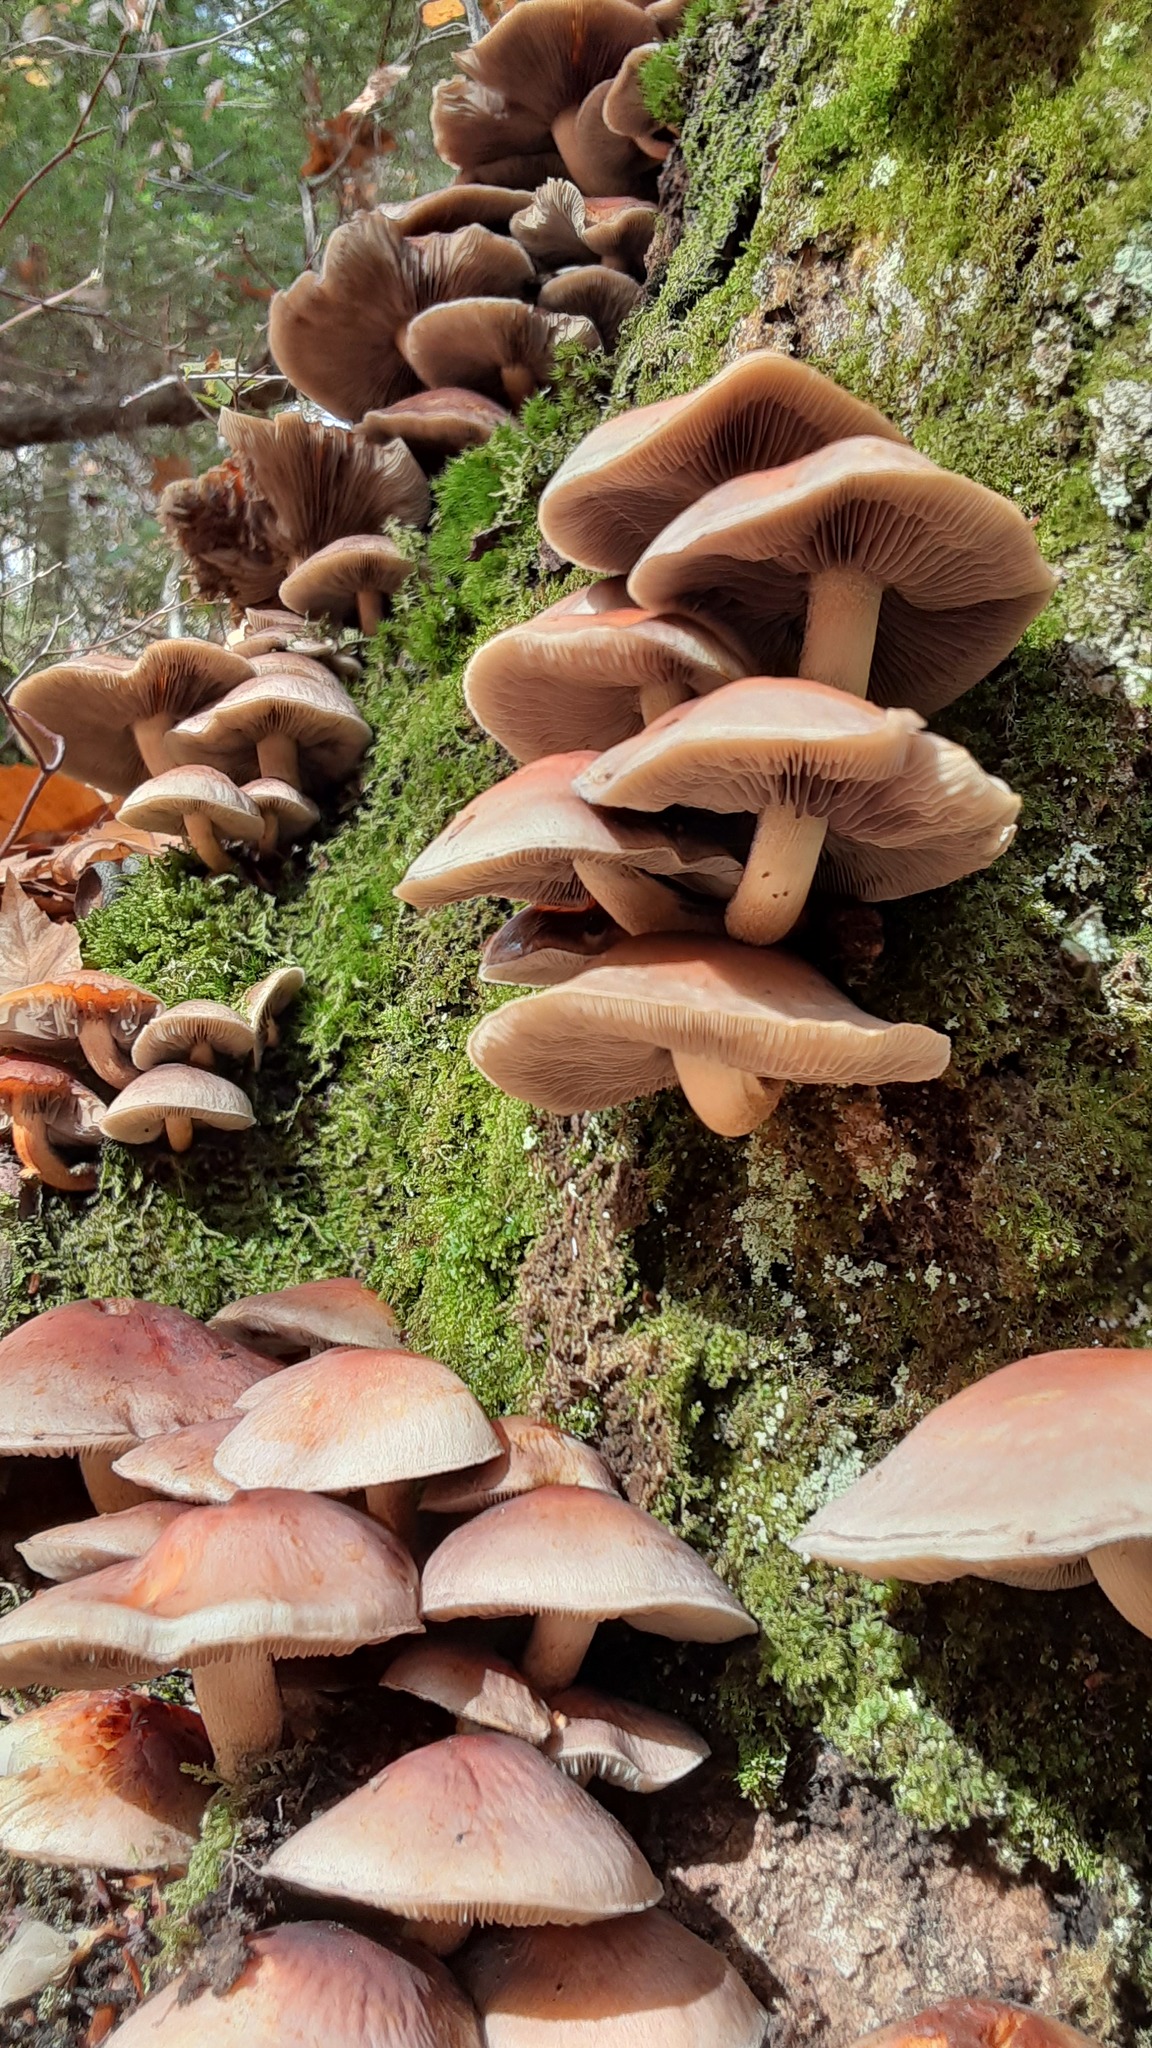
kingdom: Fungi
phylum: Basidiomycota
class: Agaricomycetes
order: Agaricales
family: Strophariaceae
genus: Hypholoma
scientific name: Hypholoma lateritium
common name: Brick caps
